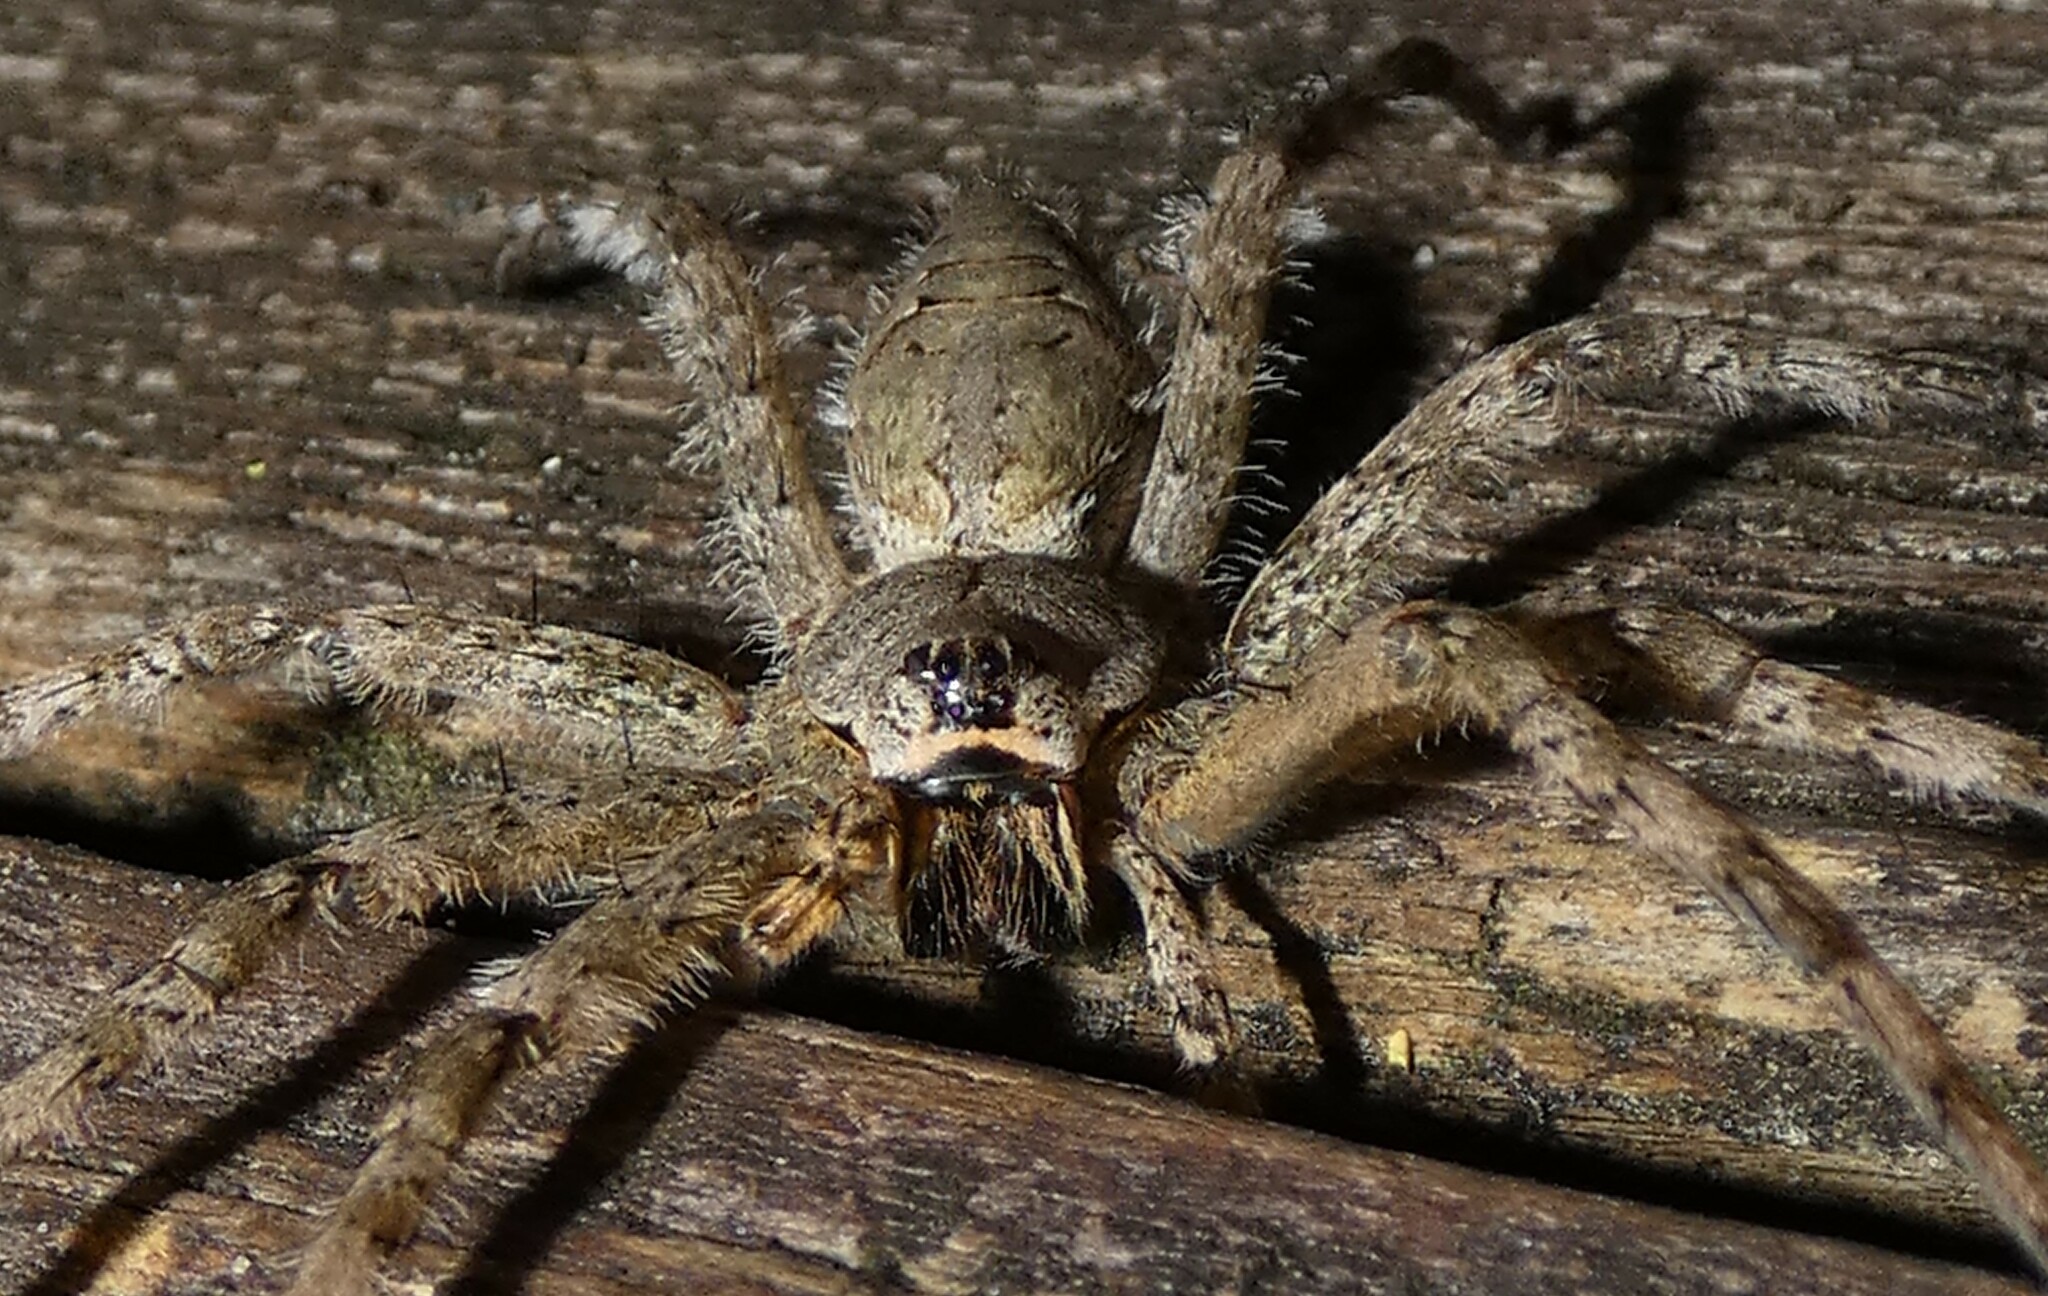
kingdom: Animalia
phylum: Arthropoda
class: Arachnida
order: Araneae
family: Pisauridae
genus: Dolomedes
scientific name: Dolomedes albineus
